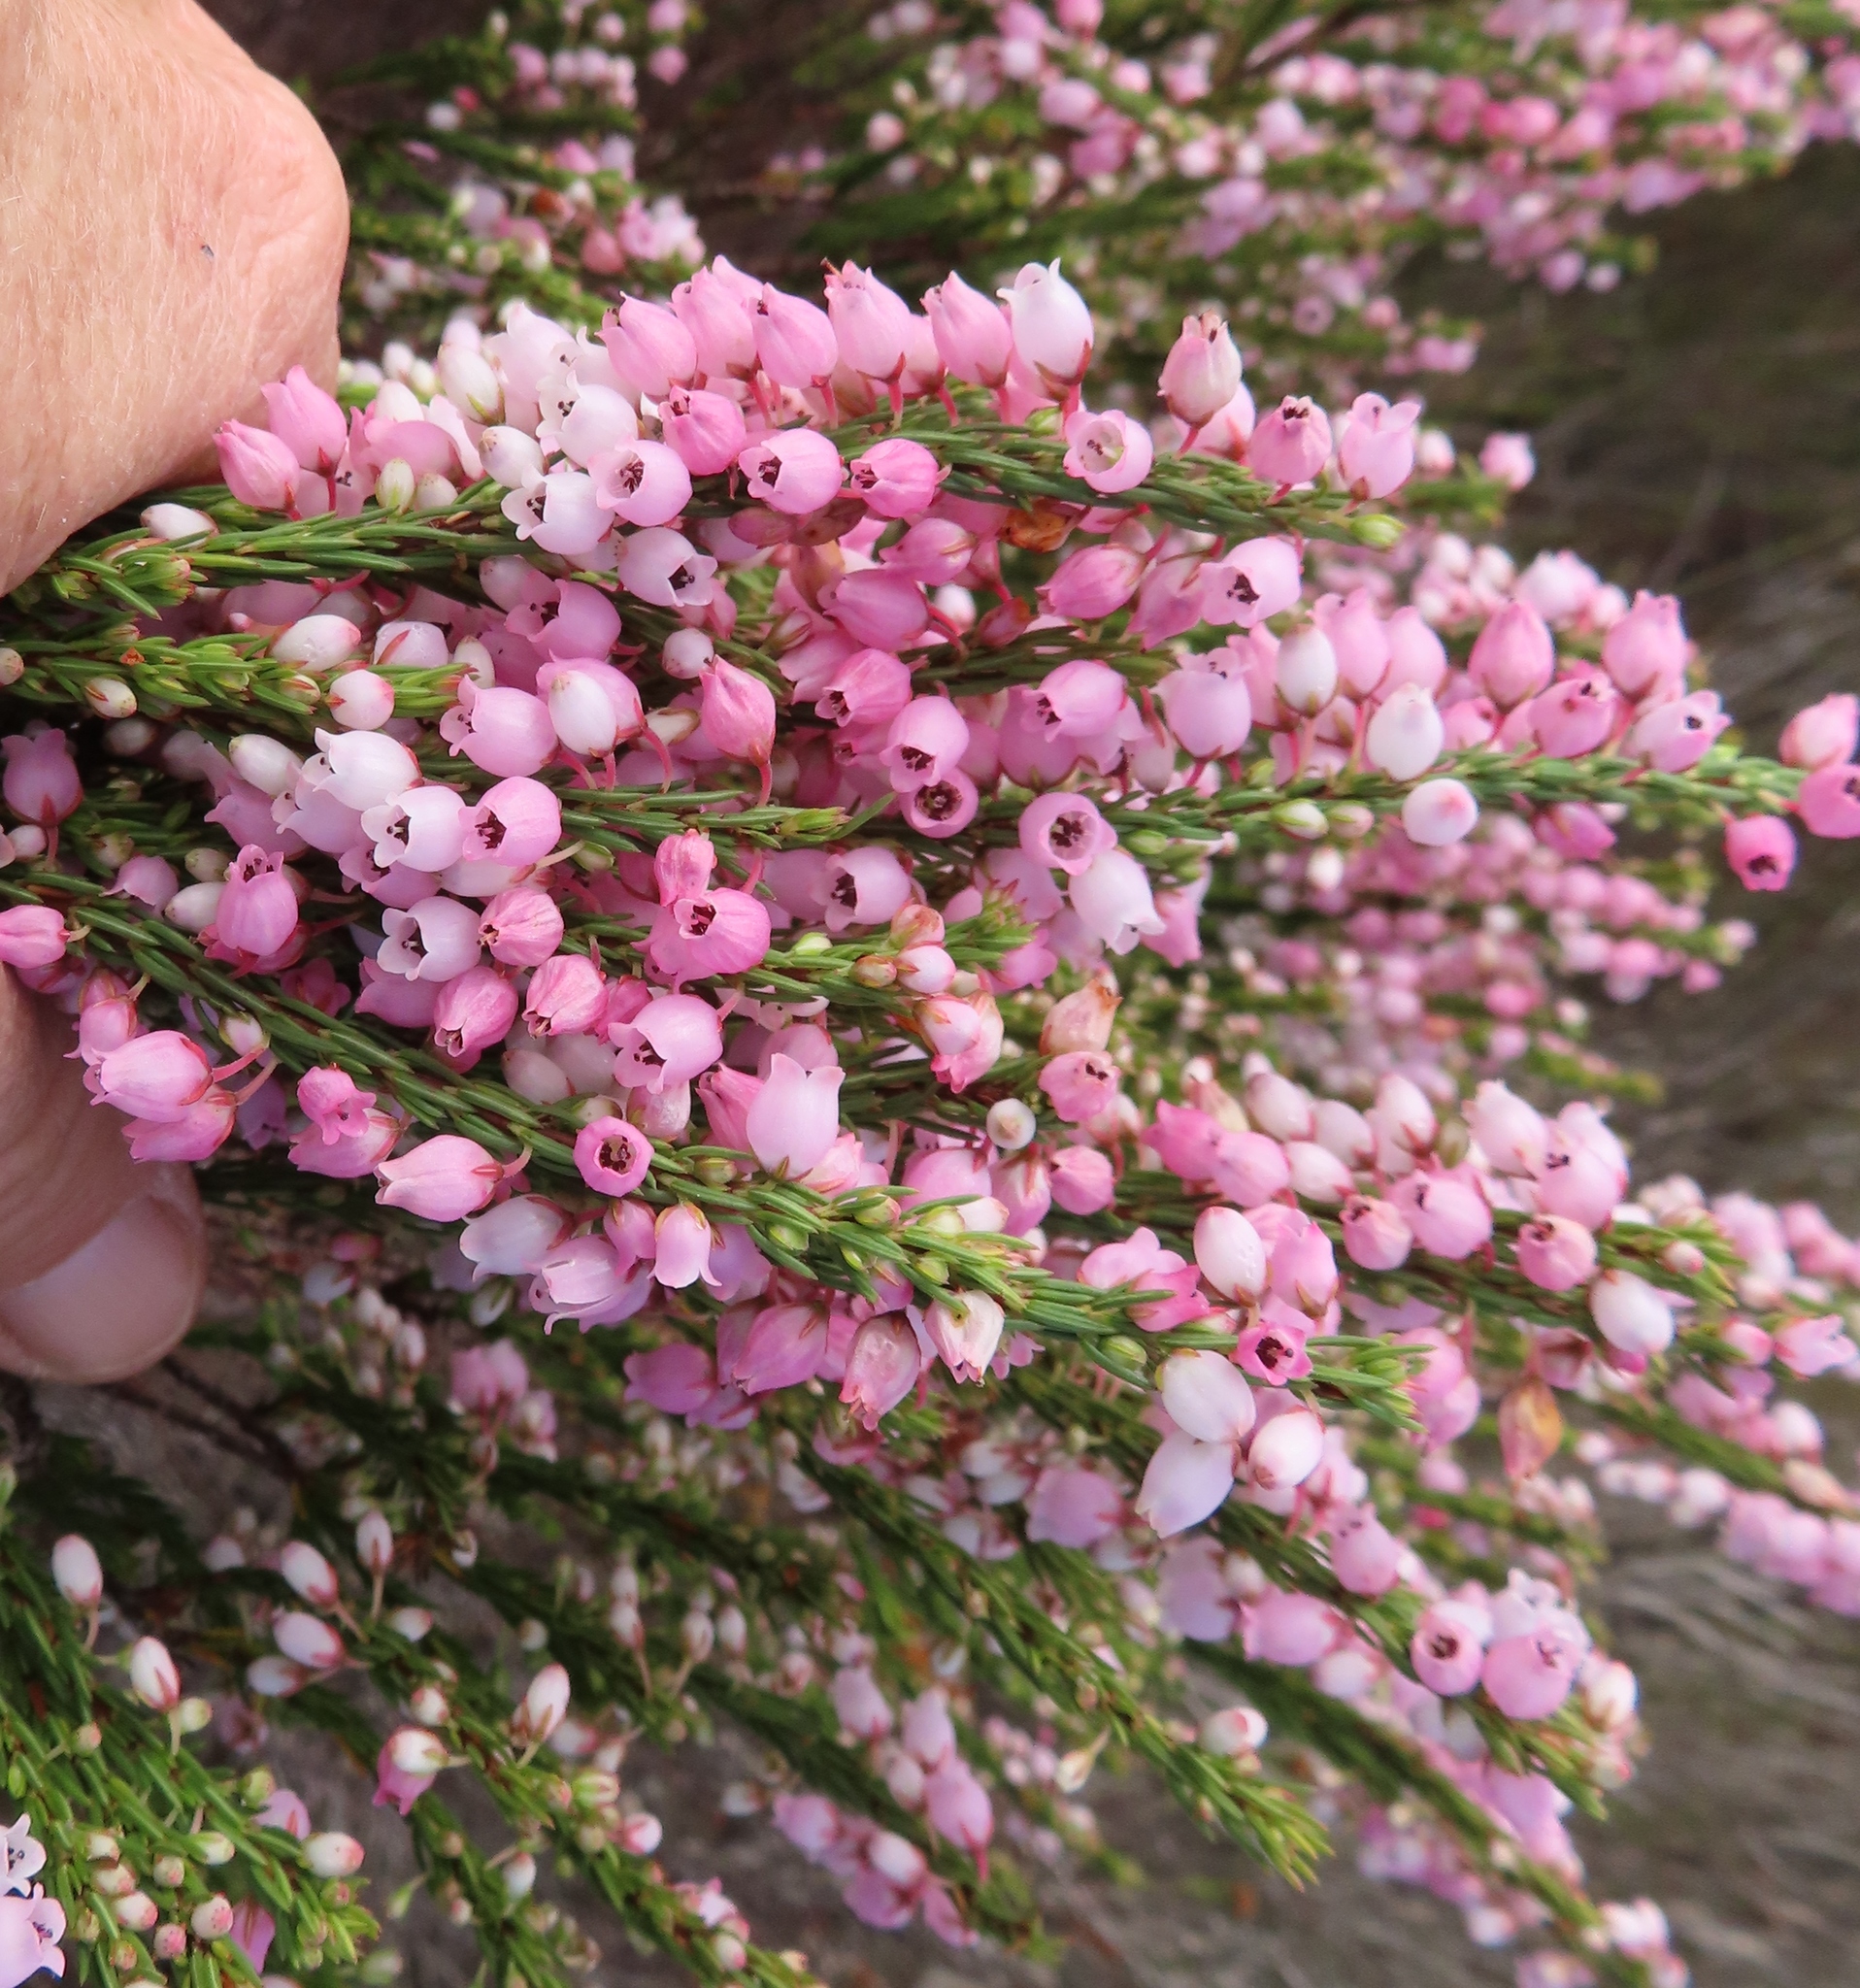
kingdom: Plantae
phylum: Tracheophyta
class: Magnoliopsida
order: Ericales
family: Ericaceae
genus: Erica
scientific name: Erica filipendula
